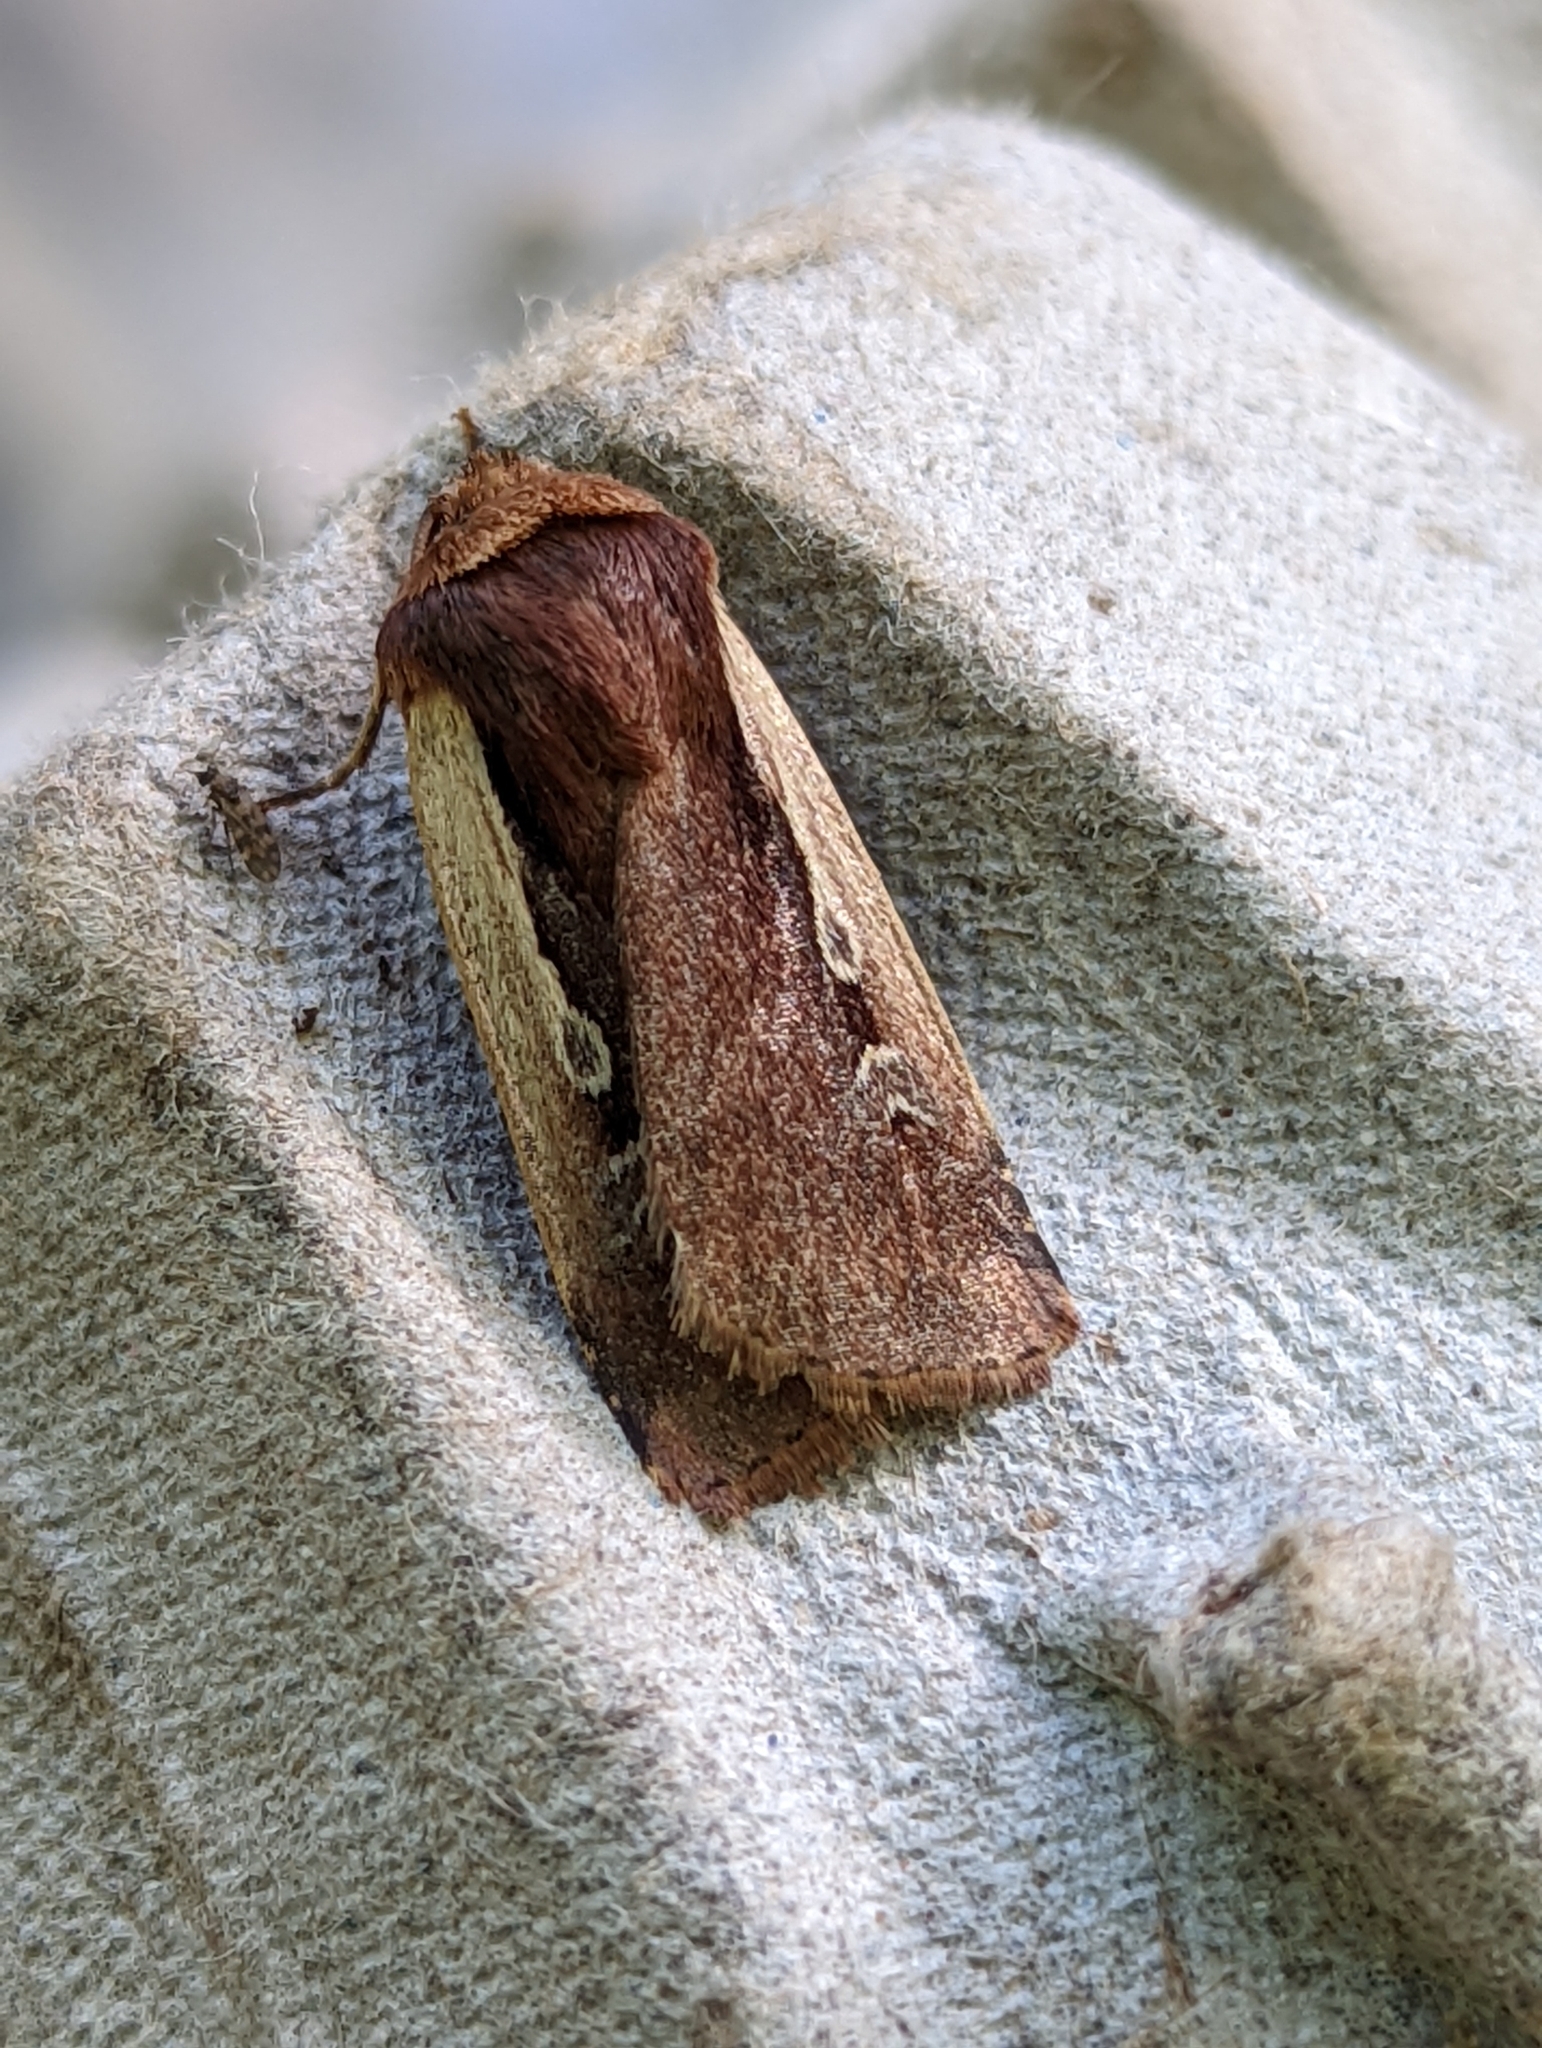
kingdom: Animalia
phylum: Arthropoda
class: Insecta
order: Lepidoptera
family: Noctuidae
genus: Ochropleura
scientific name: Ochropleura plecta
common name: Flame shoulder
